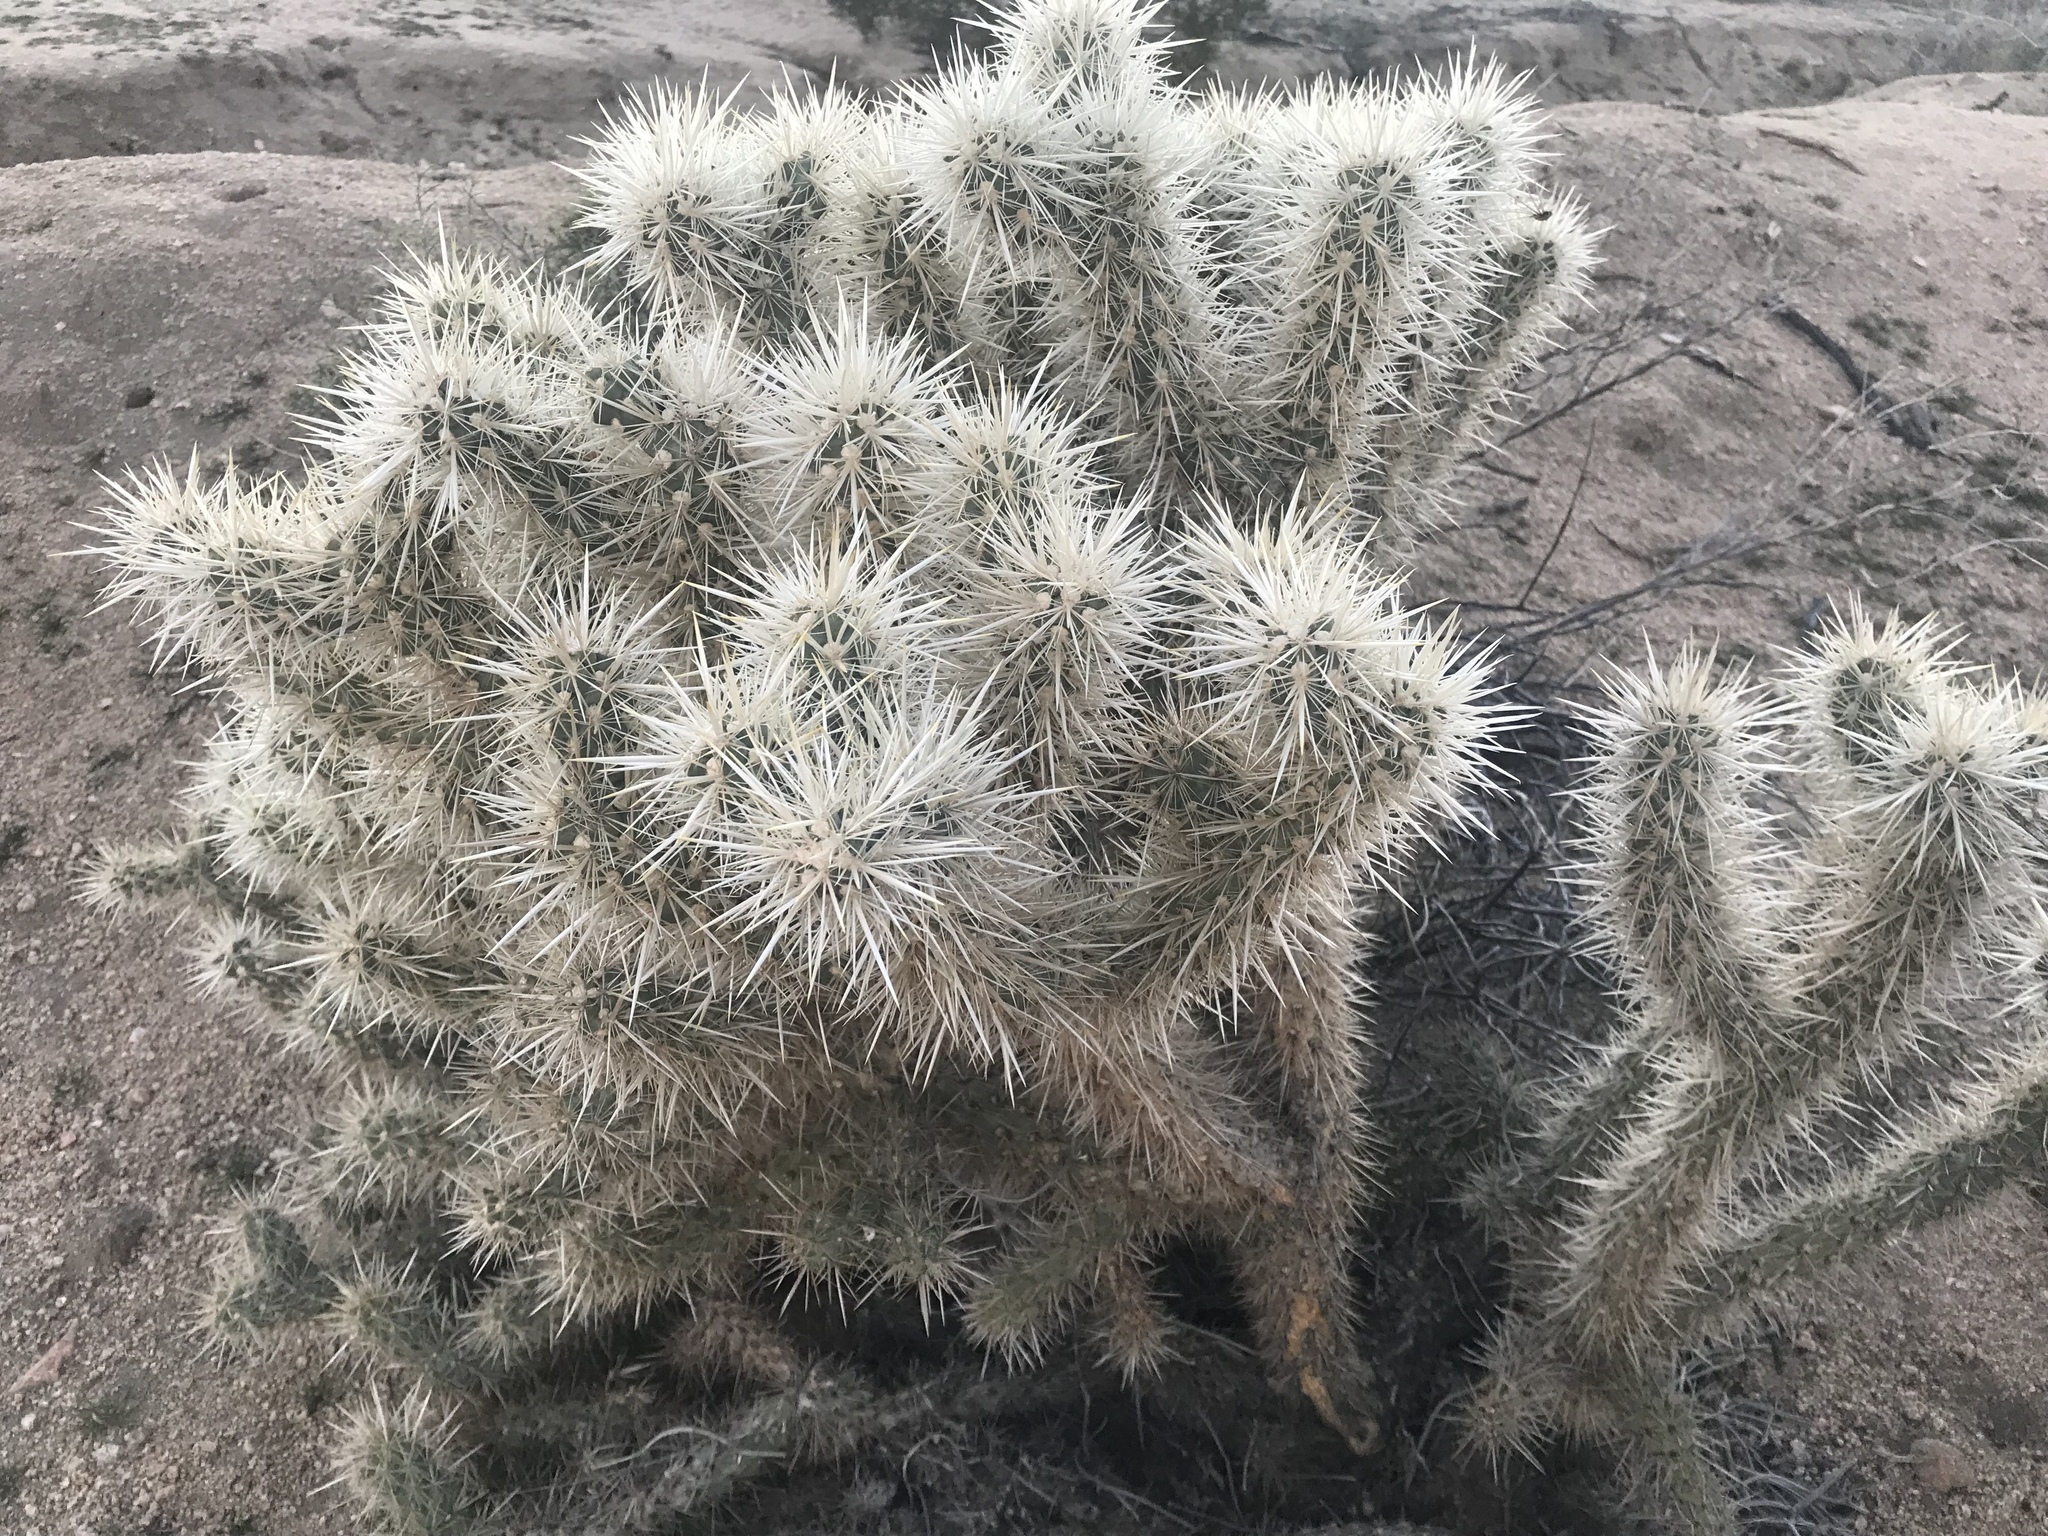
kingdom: Plantae
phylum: Tracheophyta
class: Magnoliopsida
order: Caryophyllales
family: Cactaceae
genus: Cylindropuntia
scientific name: Cylindropuntia echinocarpa
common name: Ground cholla
